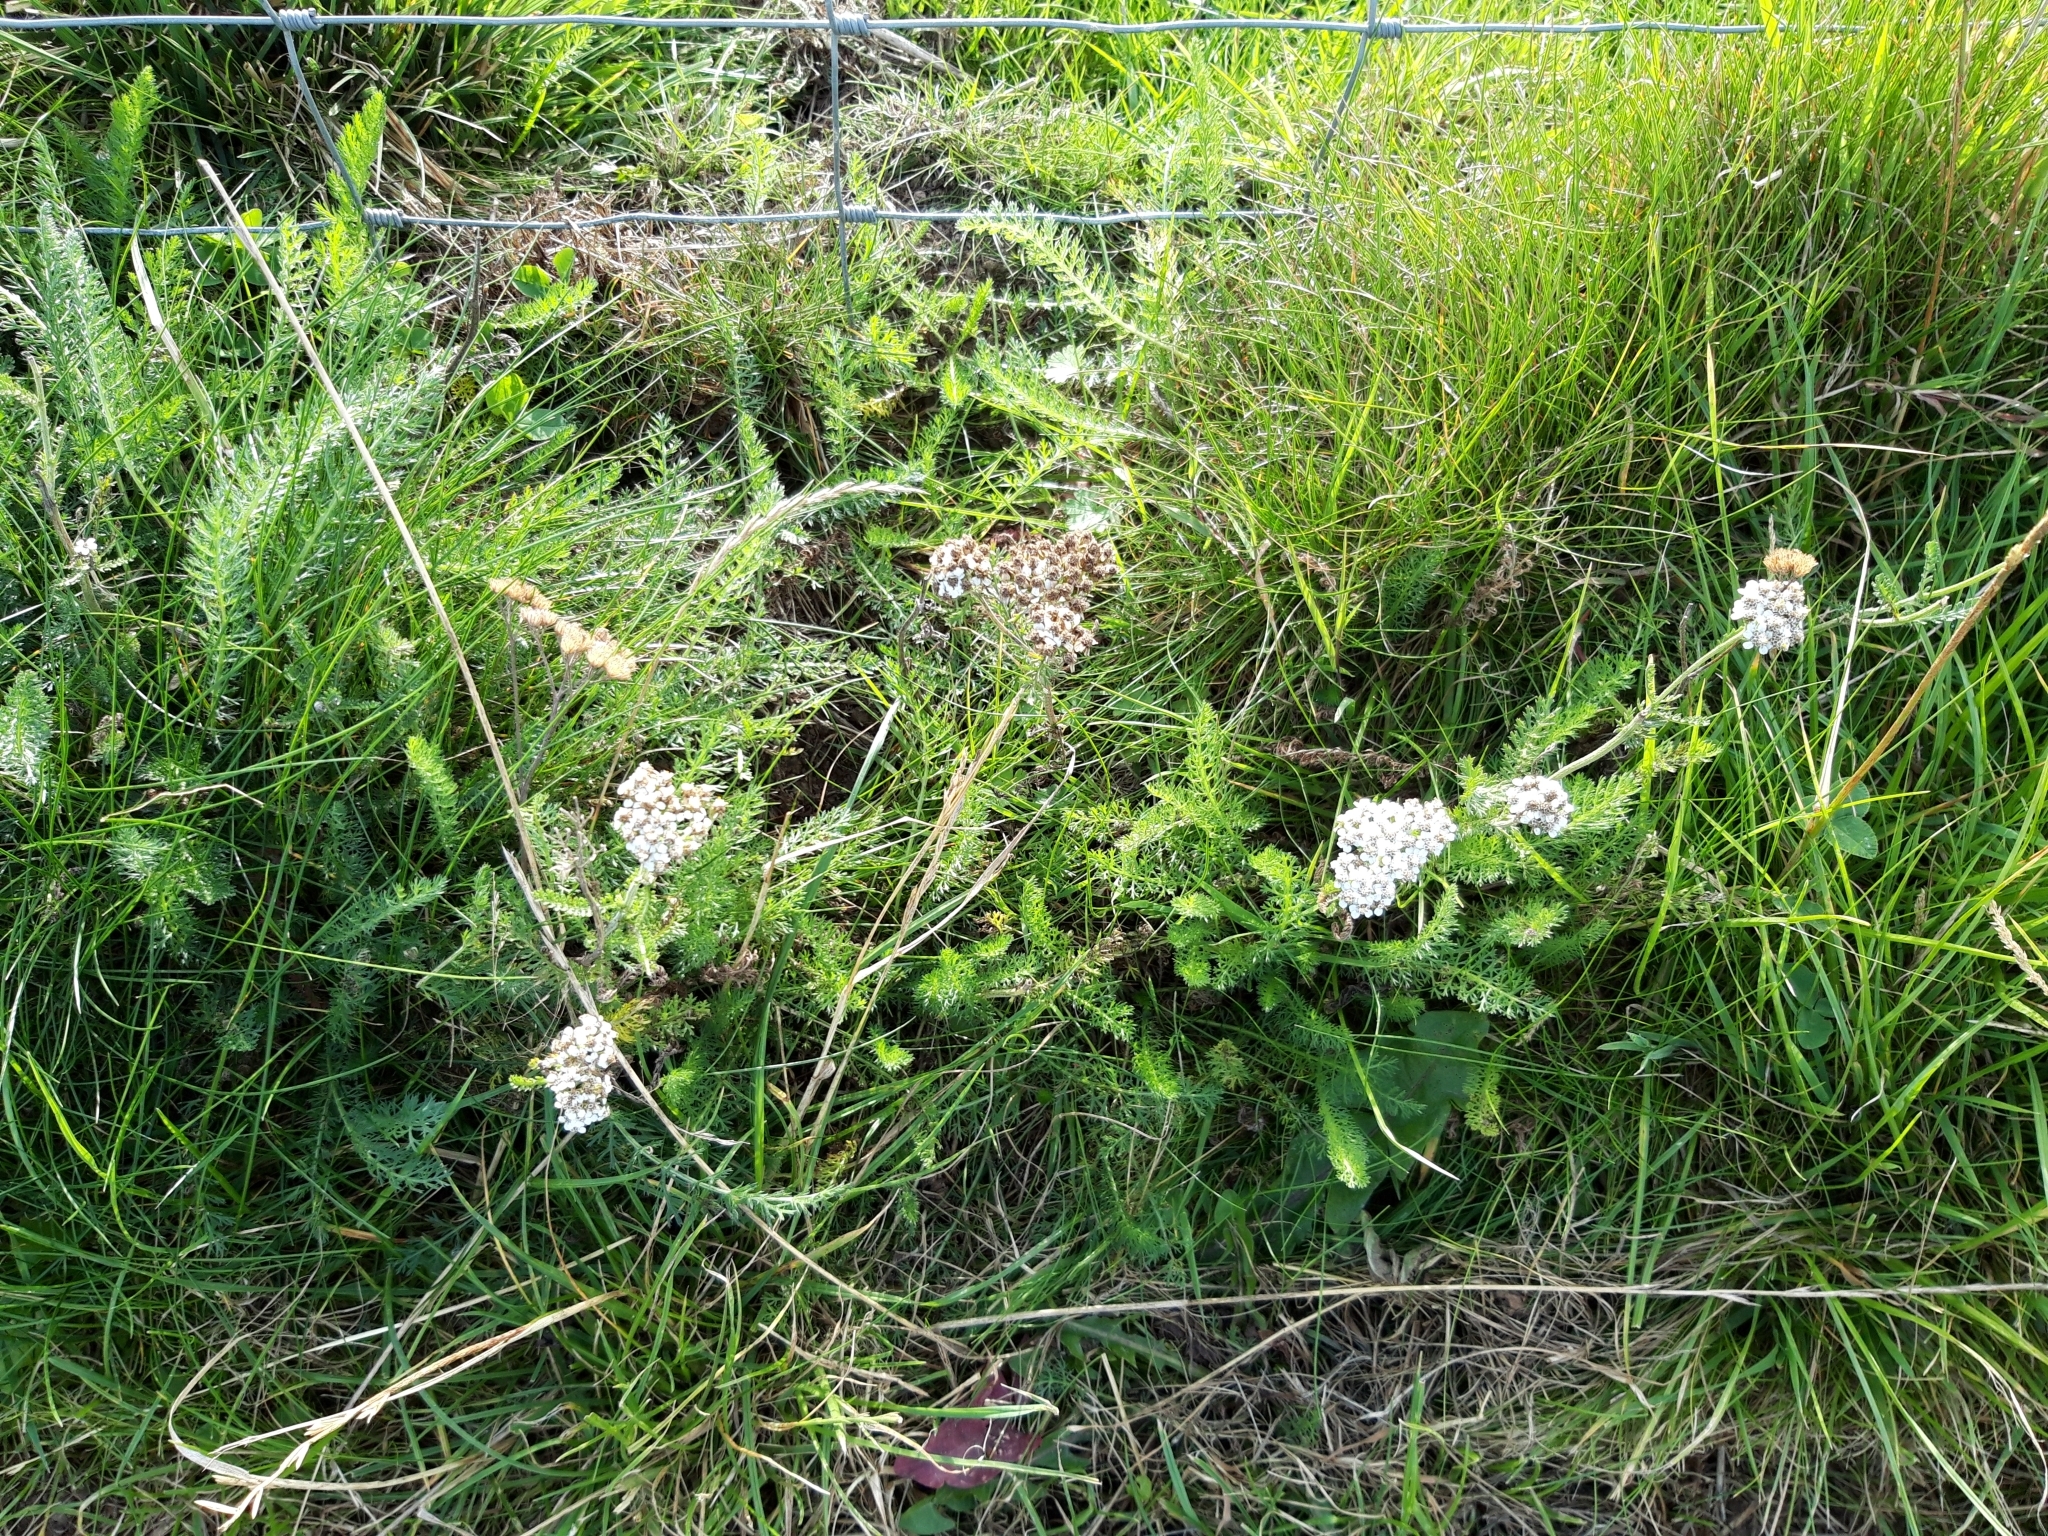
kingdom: Plantae
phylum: Tracheophyta
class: Magnoliopsida
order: Asterales
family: Asteraceae
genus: Achillea
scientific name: Achillea millefolium
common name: Yarrow
